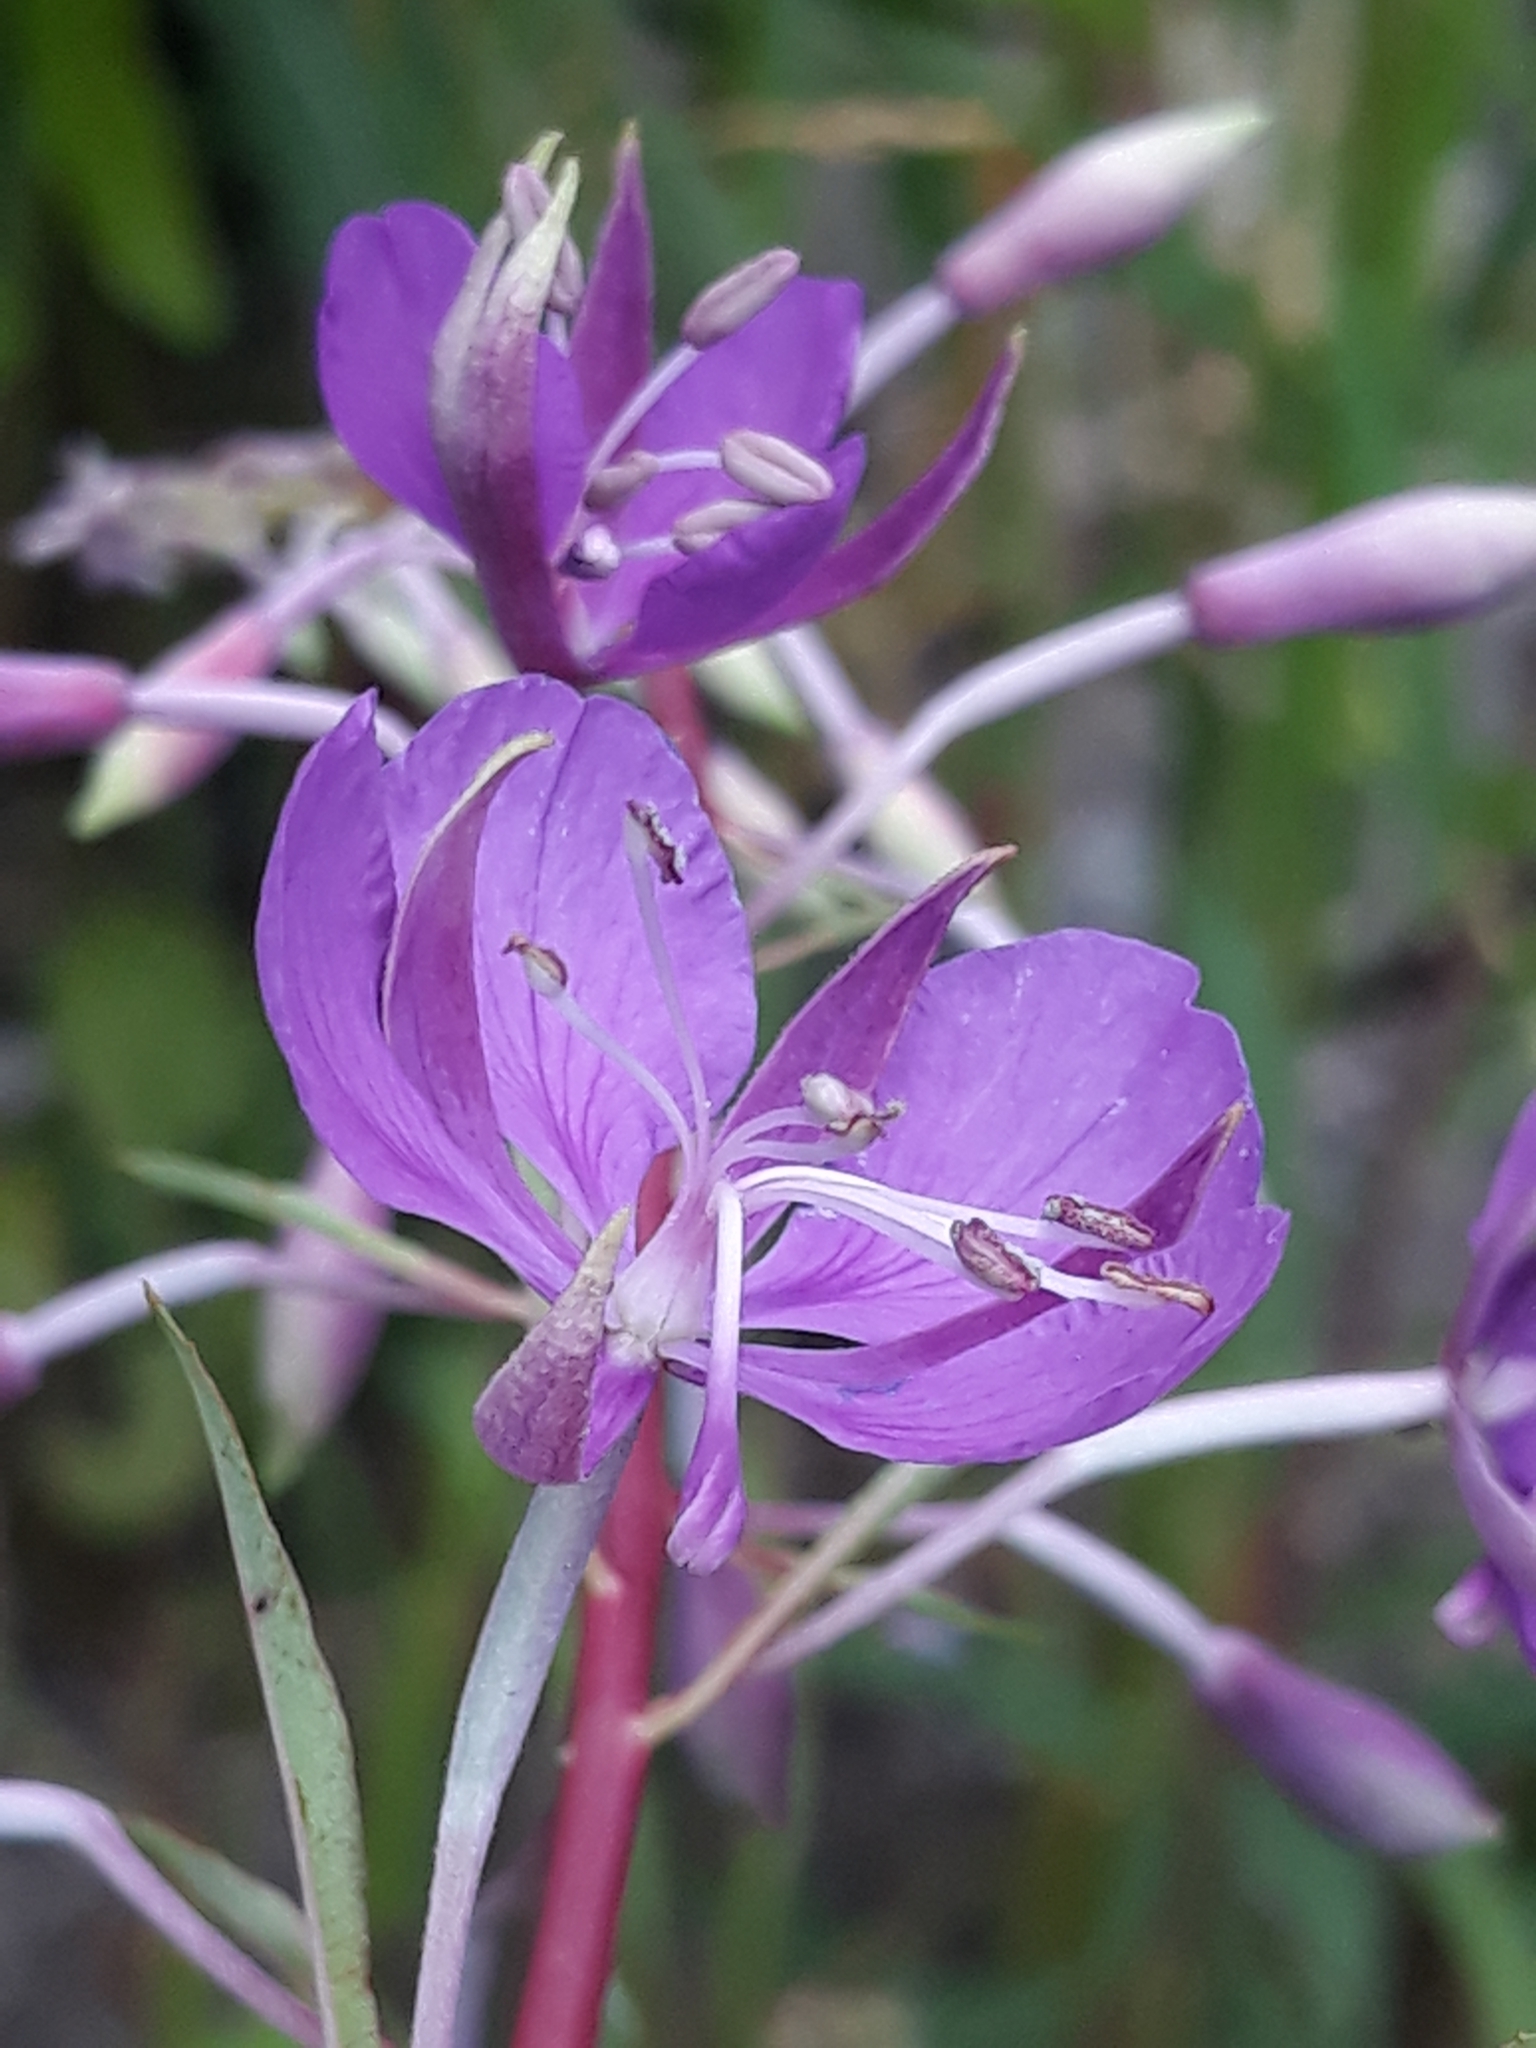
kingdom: Plantae
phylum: Tracheophyta
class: Magnoliopsida
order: Myrtales
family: Onagraceae
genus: Chamaenerion
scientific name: Chamaenerion angustifolium
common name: Fireweed
